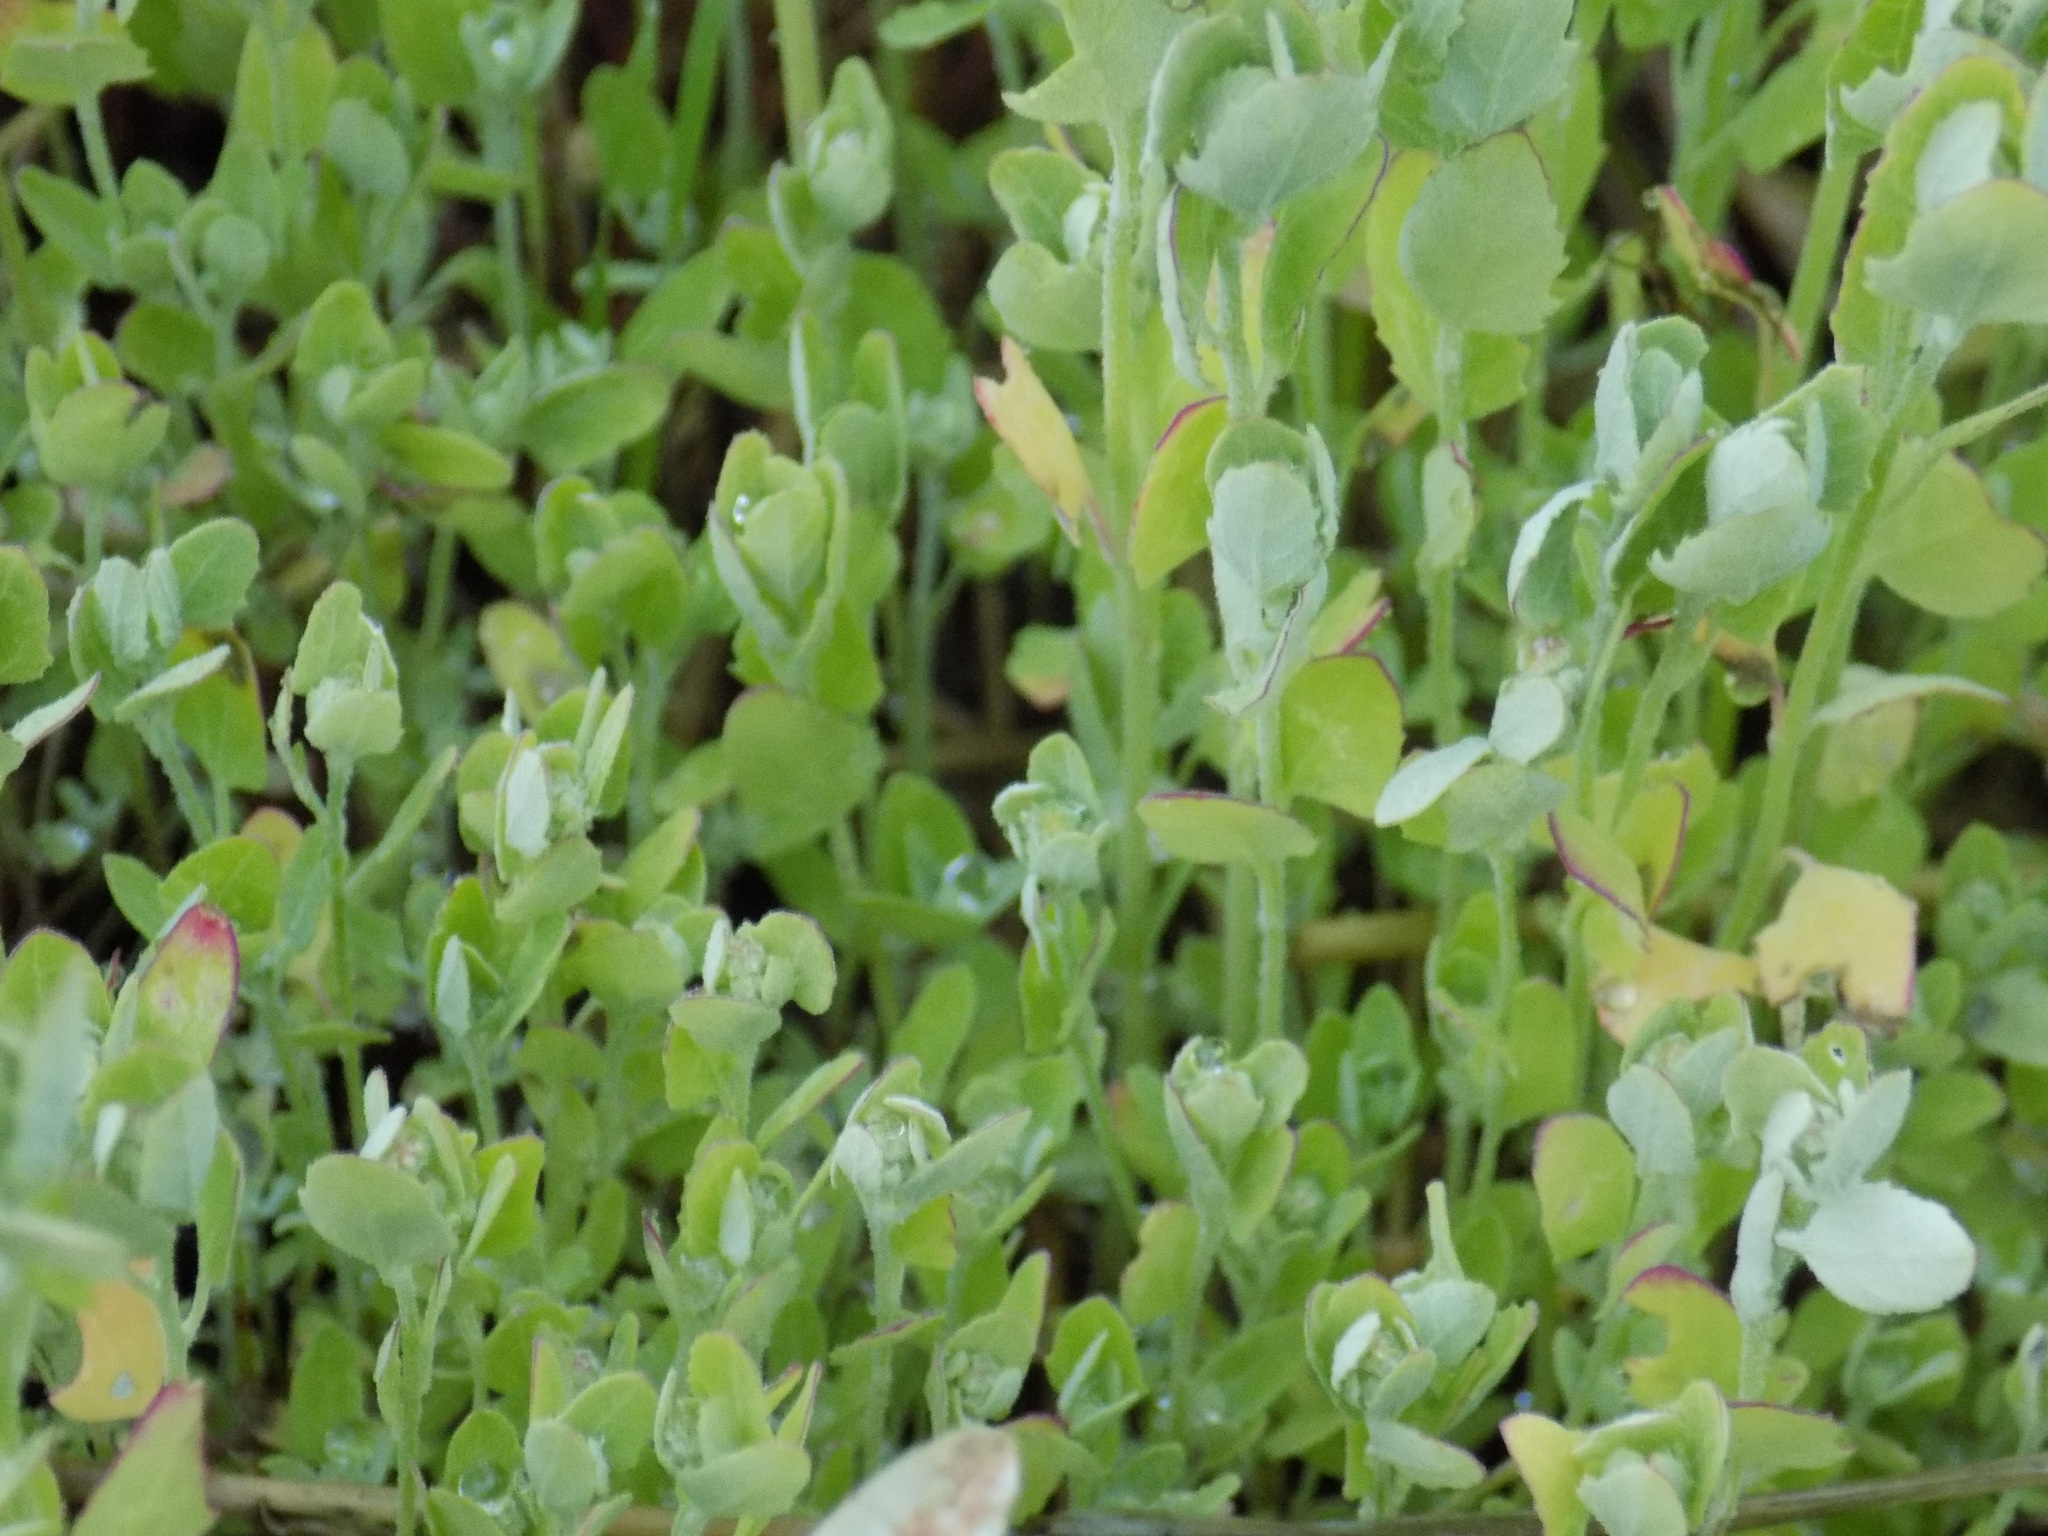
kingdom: Plantae
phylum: Tracheophyta
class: Magnoliopsida
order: Caryophyllales
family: Amaranthaceae
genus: Chenopodium
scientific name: Chenopodium album
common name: Fat-hen
